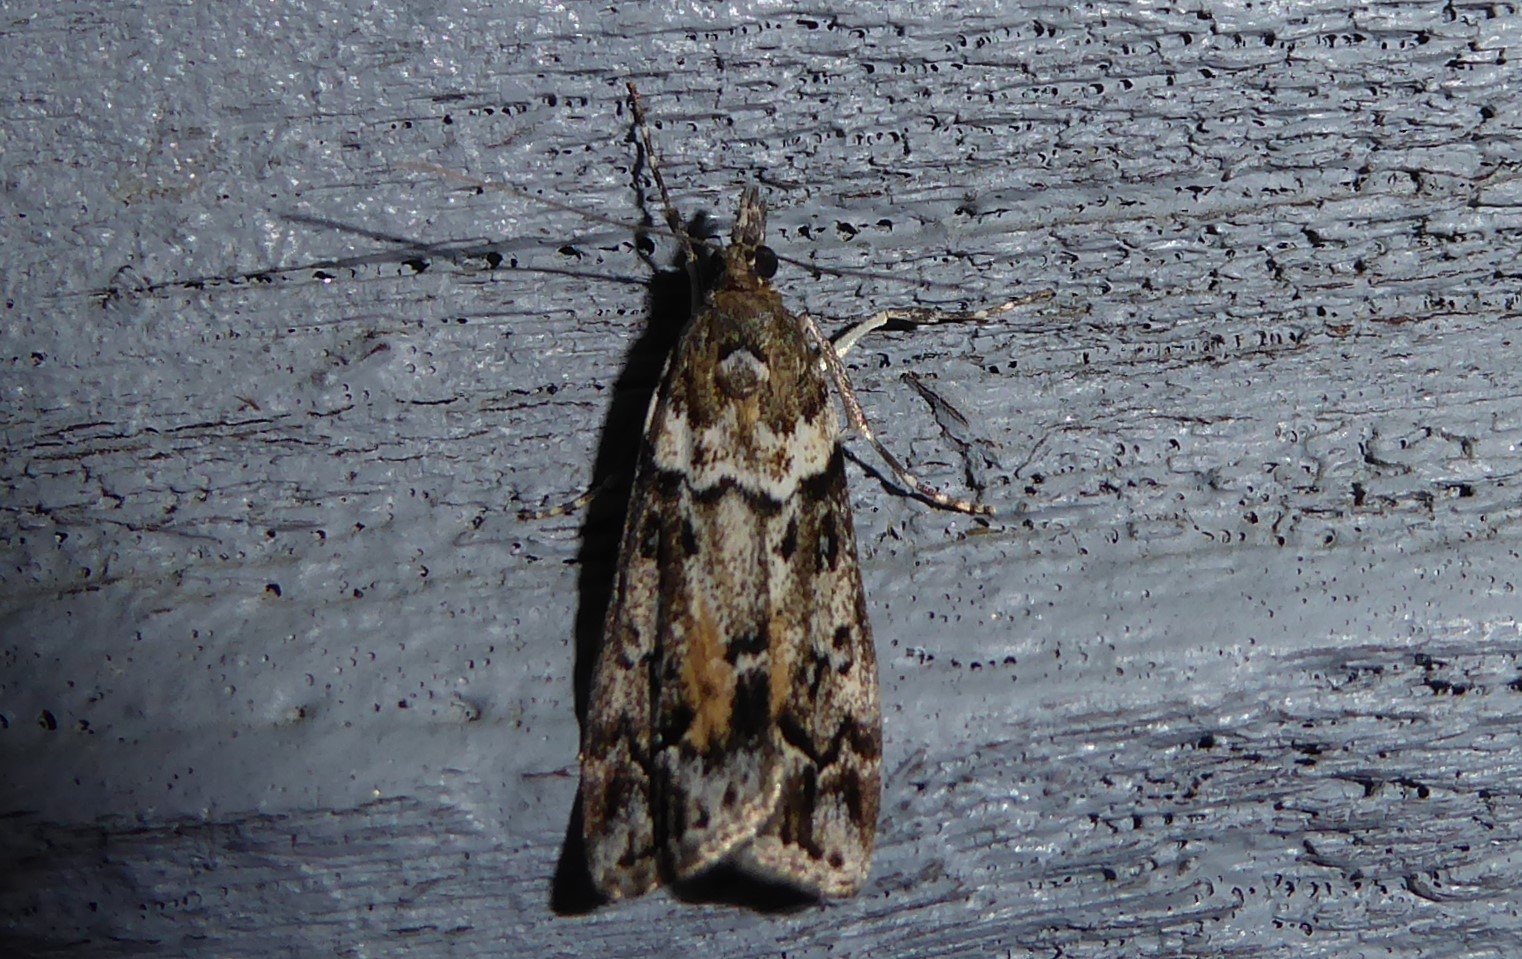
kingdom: Animalia
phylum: Arthropoda
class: Insecta
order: Lepidoptera
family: Crambidae
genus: Eudonia
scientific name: Eudonia submarginalis
